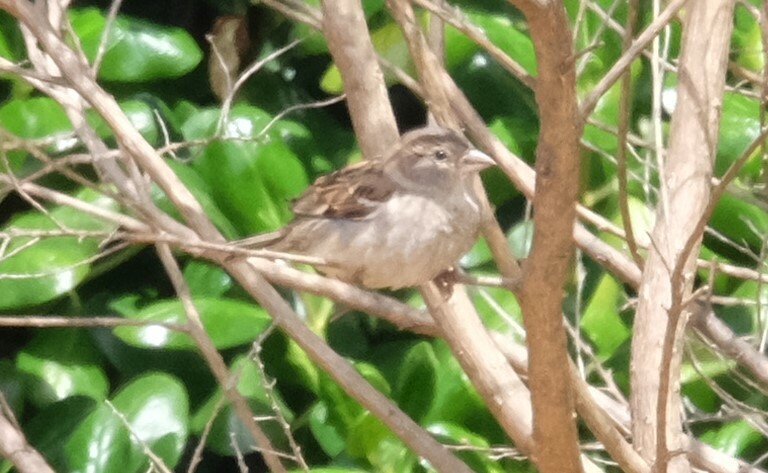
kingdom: Animalia
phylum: Chordata
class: Aves
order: Passeriformes
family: Passeridae
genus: Passer
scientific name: Passer domesticus
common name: House sparrow
